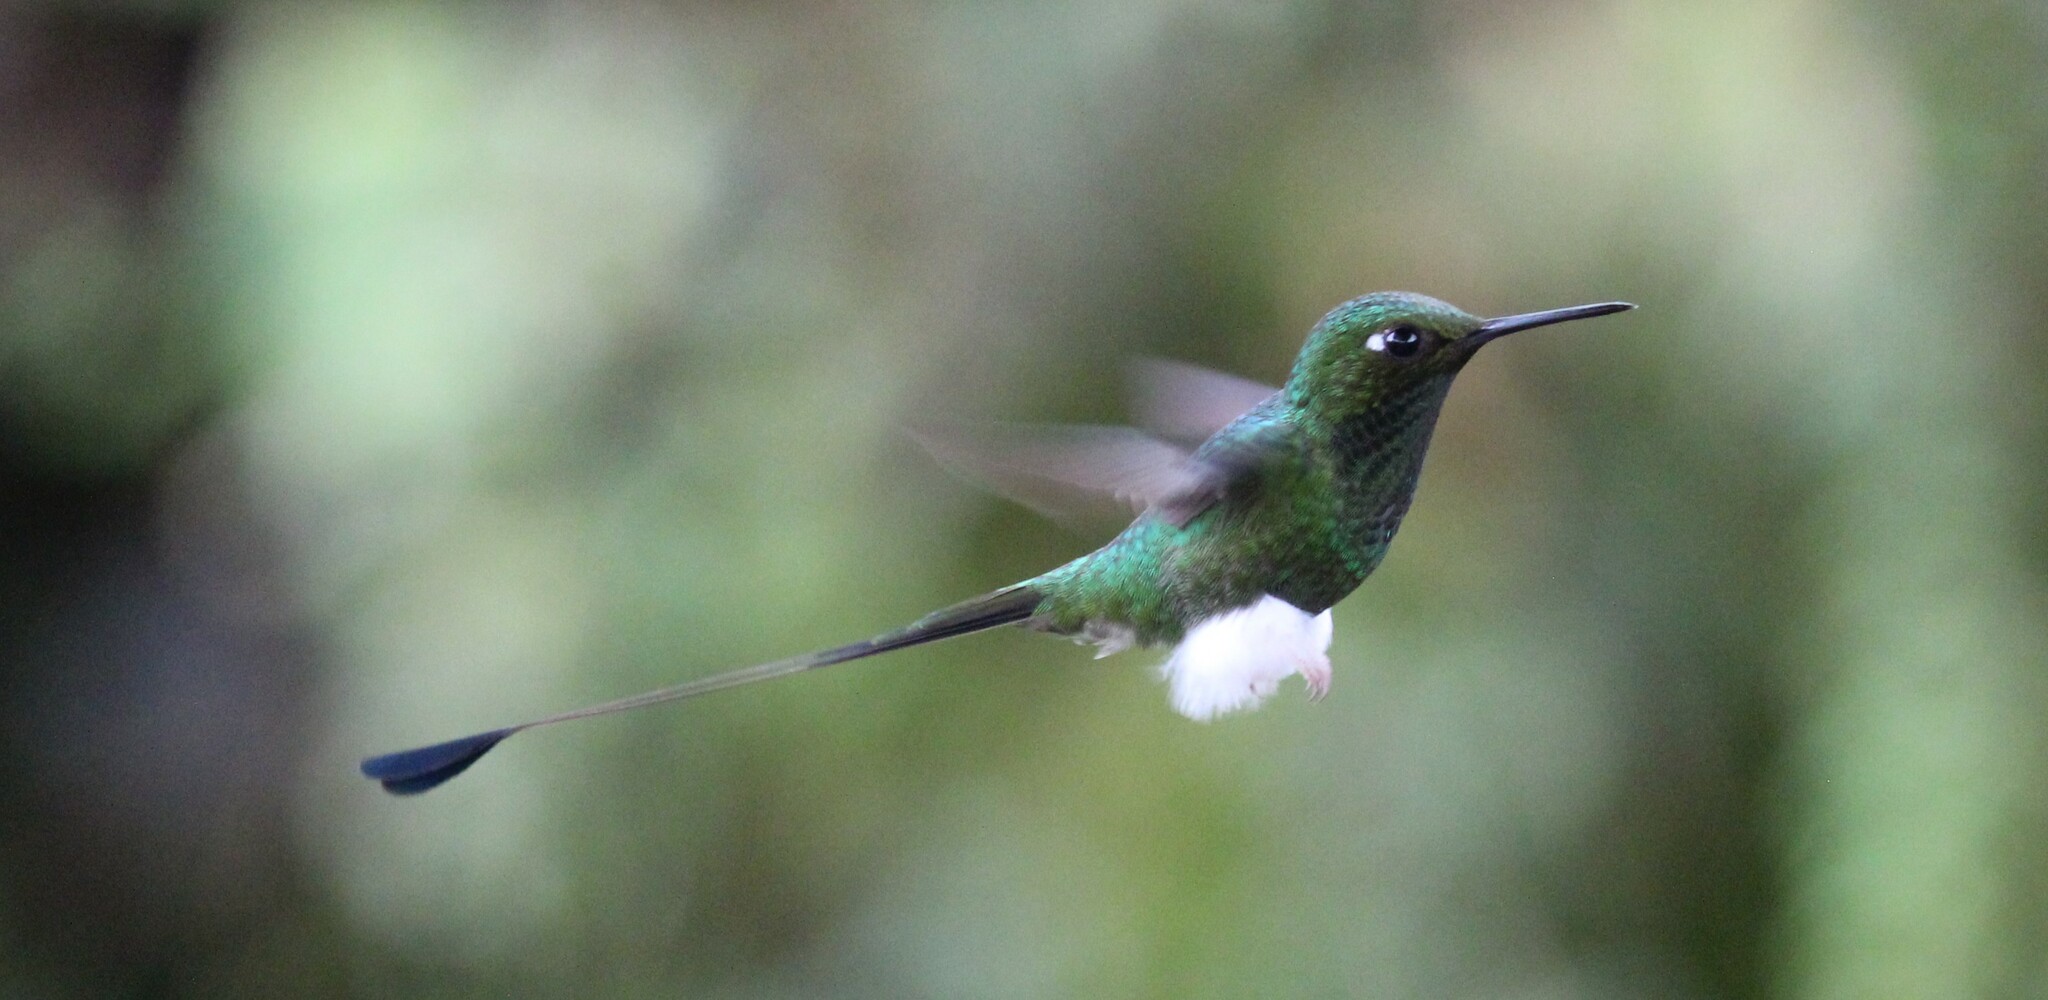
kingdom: Animalia
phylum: Chordata
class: Aves
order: Apodiformes
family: Trochilidae
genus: Ocreatus
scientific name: Ocreatus underwoodii
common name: Booted racket-tail
